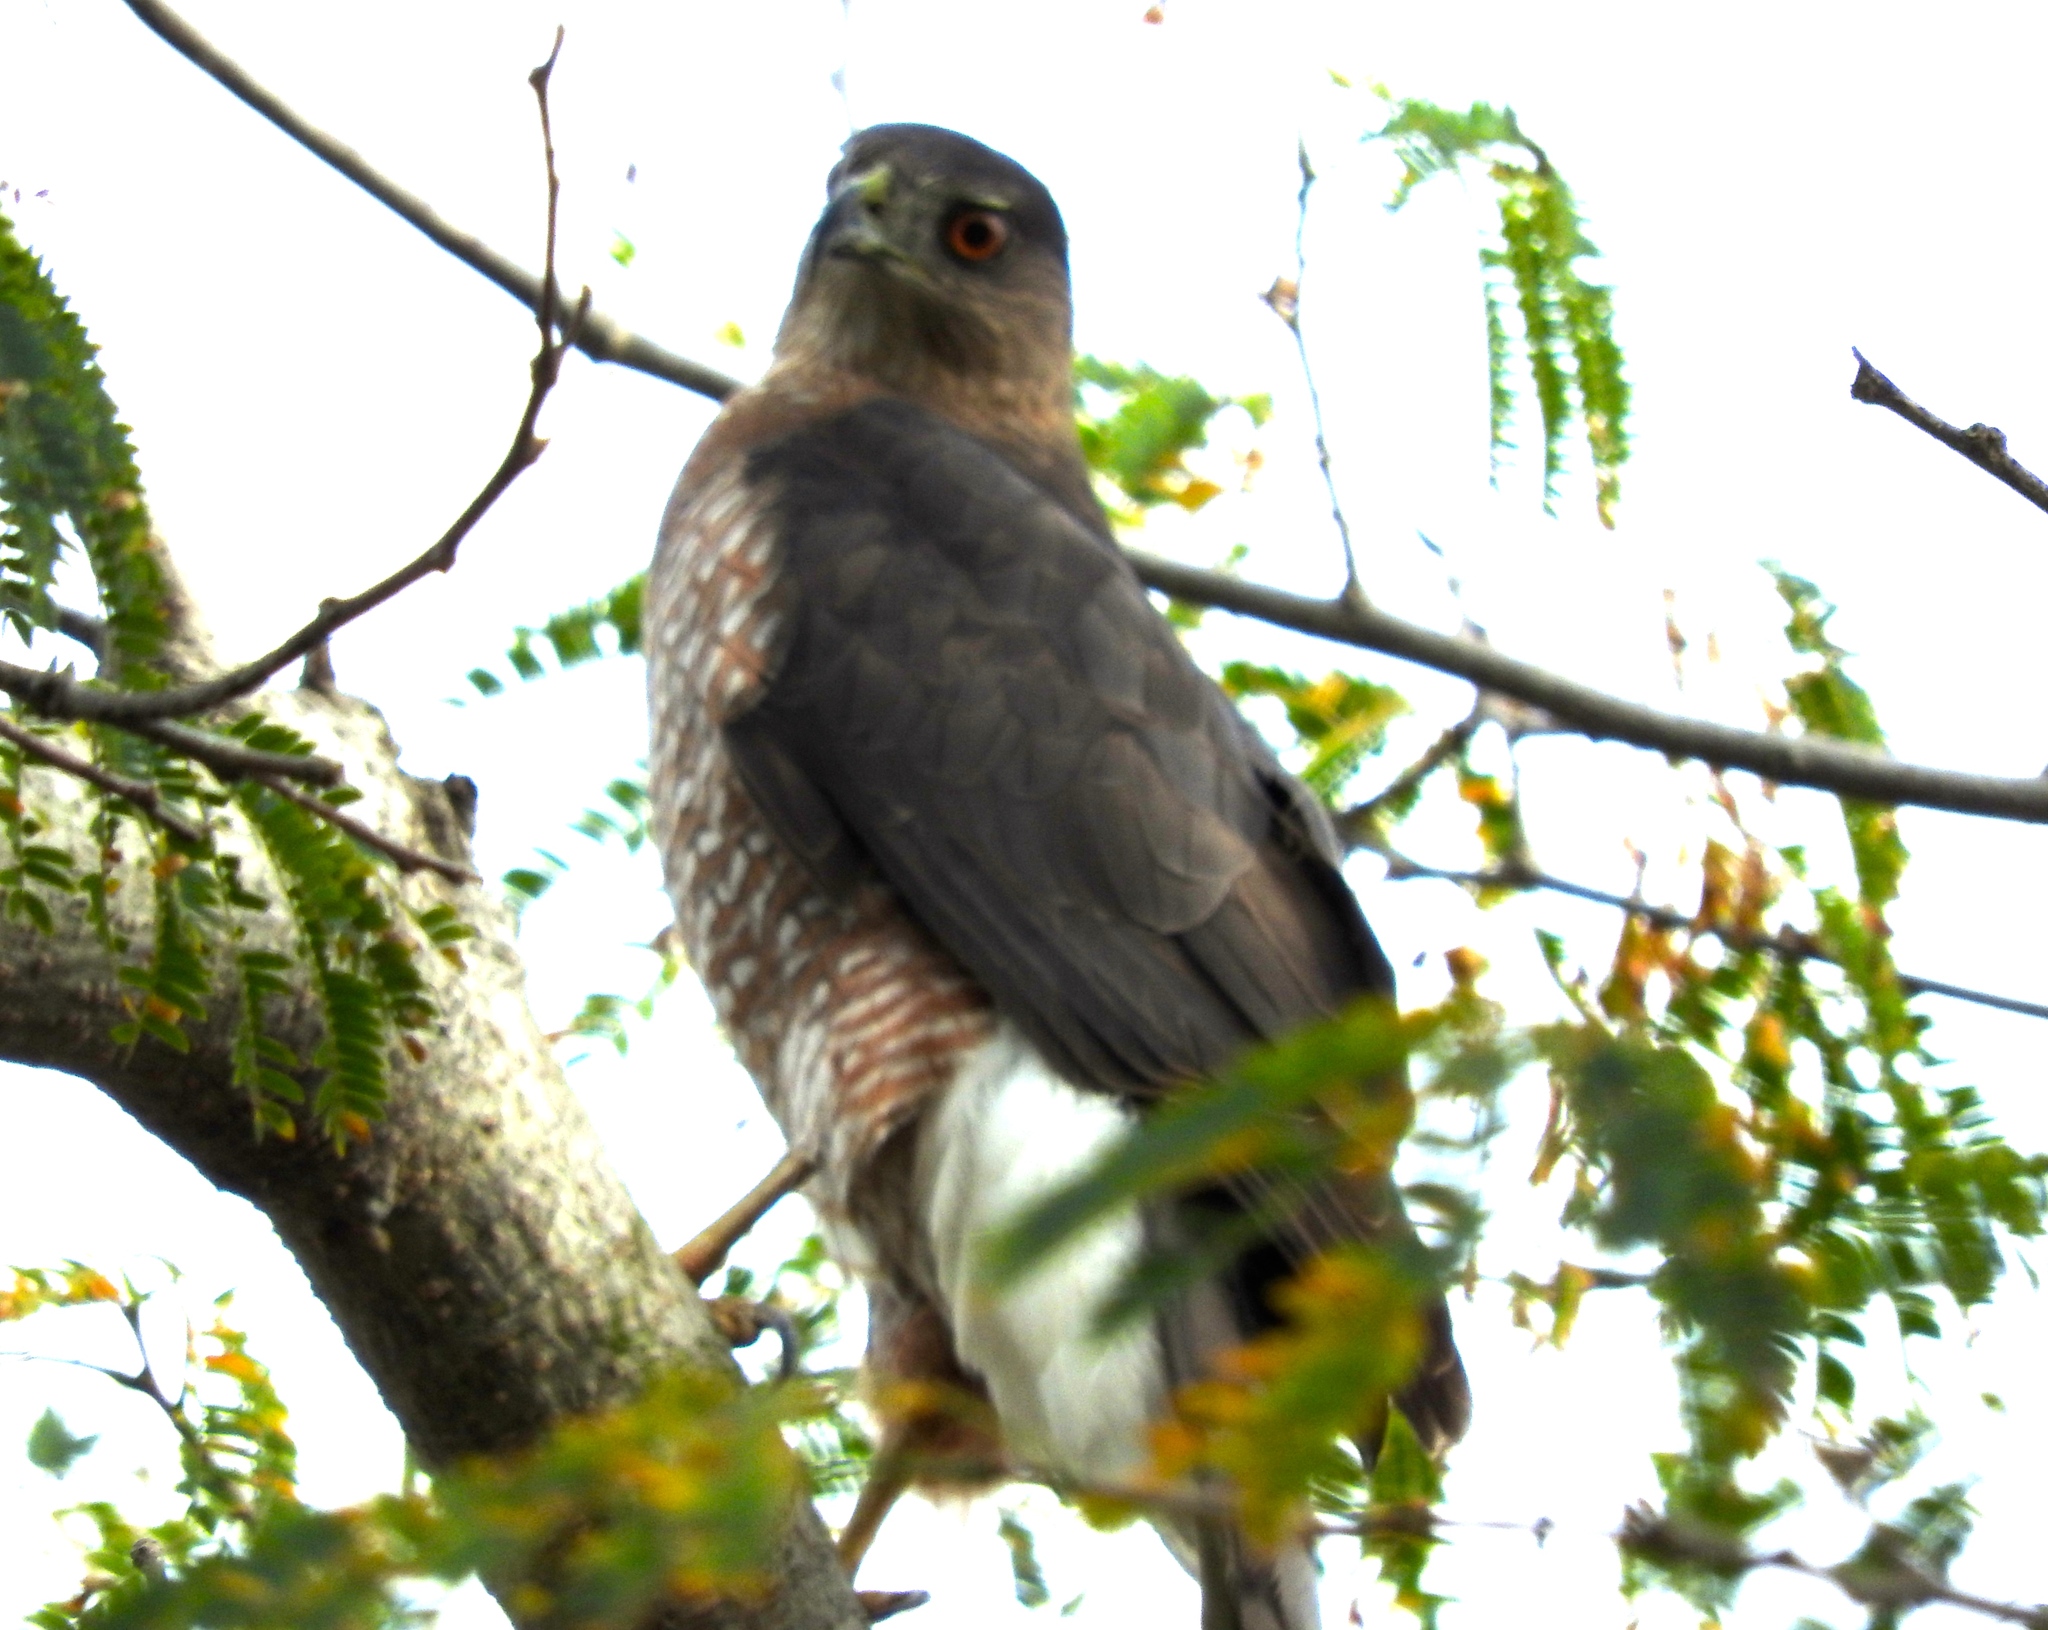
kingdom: Animalia
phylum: Chordata
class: Aves
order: Accipitriformes
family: Accipitridae
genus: Accipiter
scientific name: Accipiter cooperii
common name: Cooper's hawk
